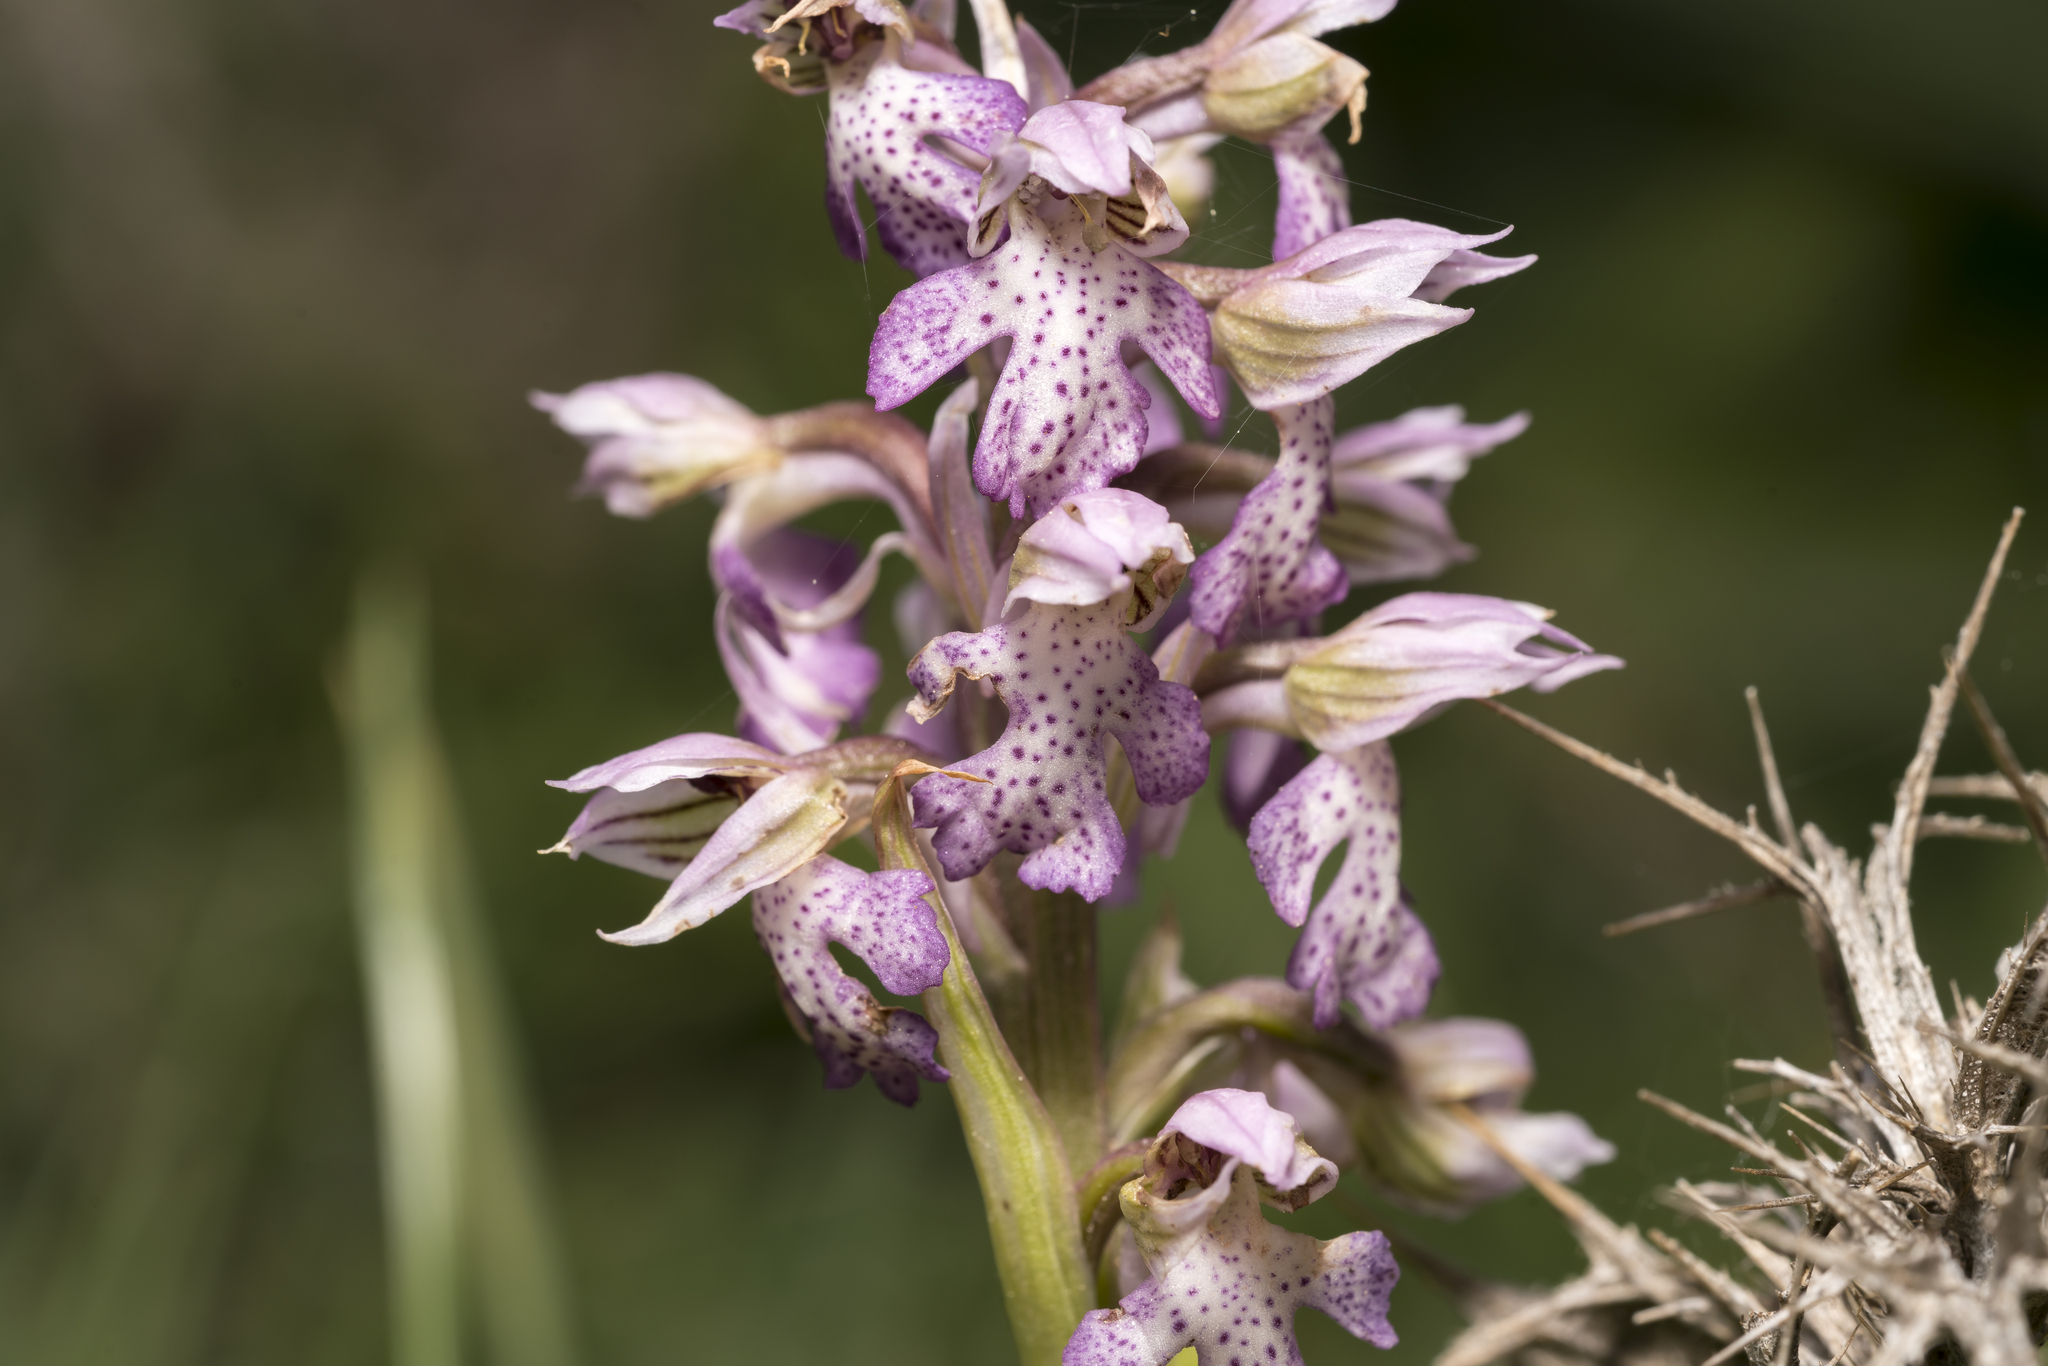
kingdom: Plantae
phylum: Tracheophyta
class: Liliopsida
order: Asparagales
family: Orchidaceae
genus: Neotinea
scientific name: Neotinea lactea
